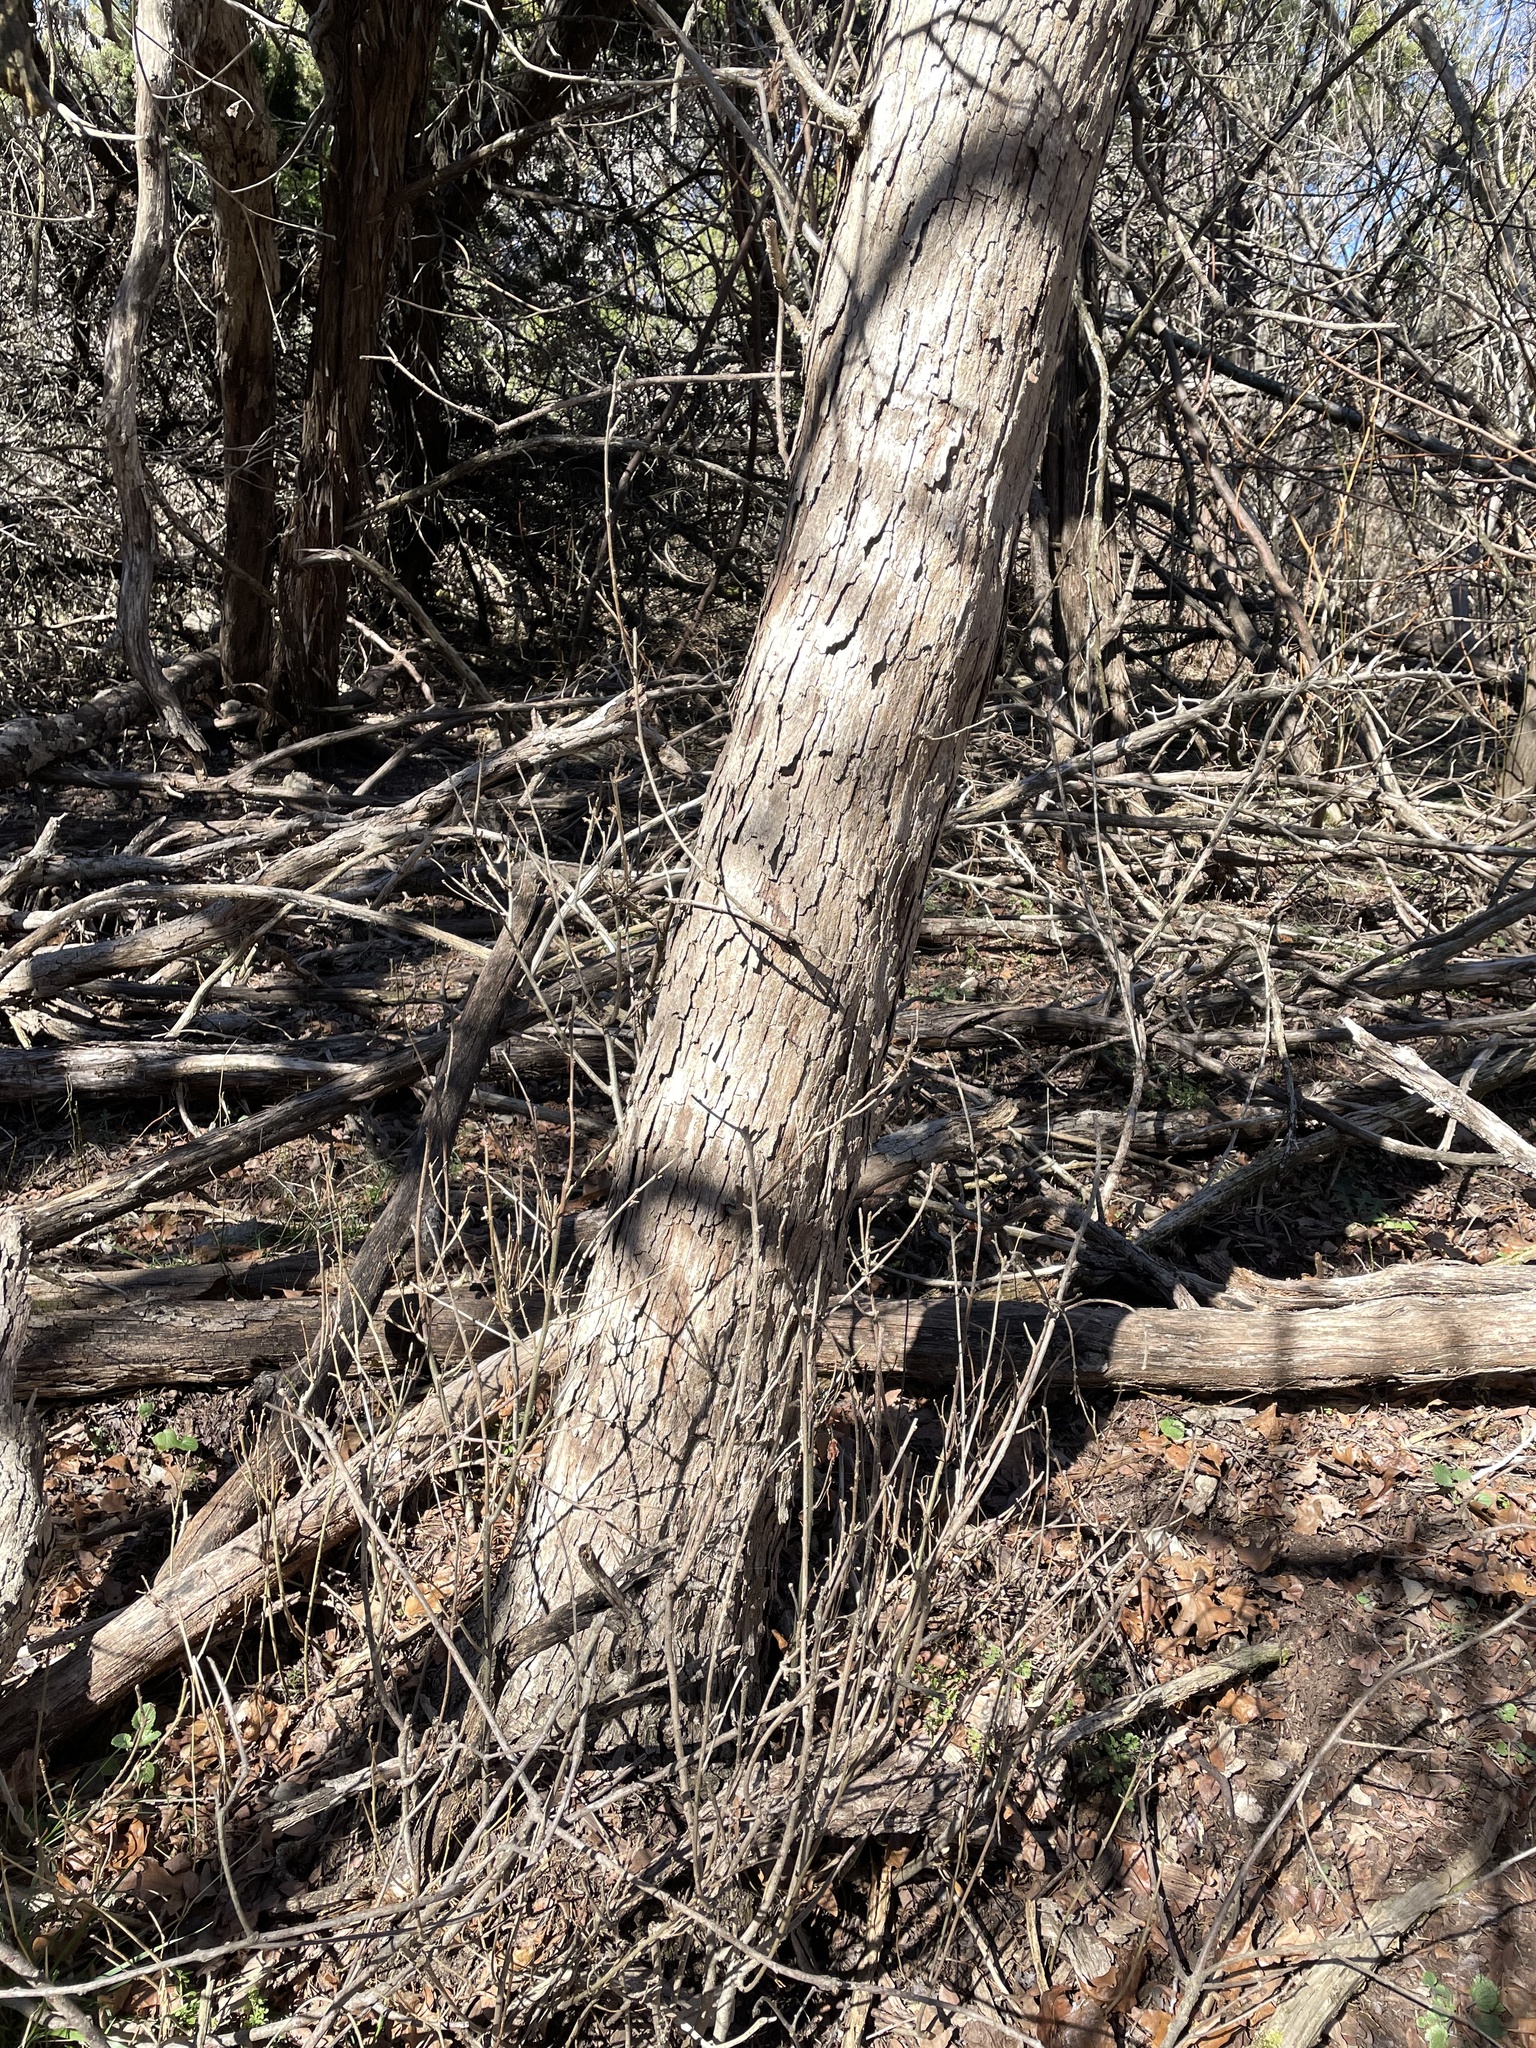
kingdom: Plantae
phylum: Tracheophyta
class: Magnoliopsida
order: Fagales
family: Fagaceae
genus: Quercus
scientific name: Quercus sinuata
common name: Durand oak
